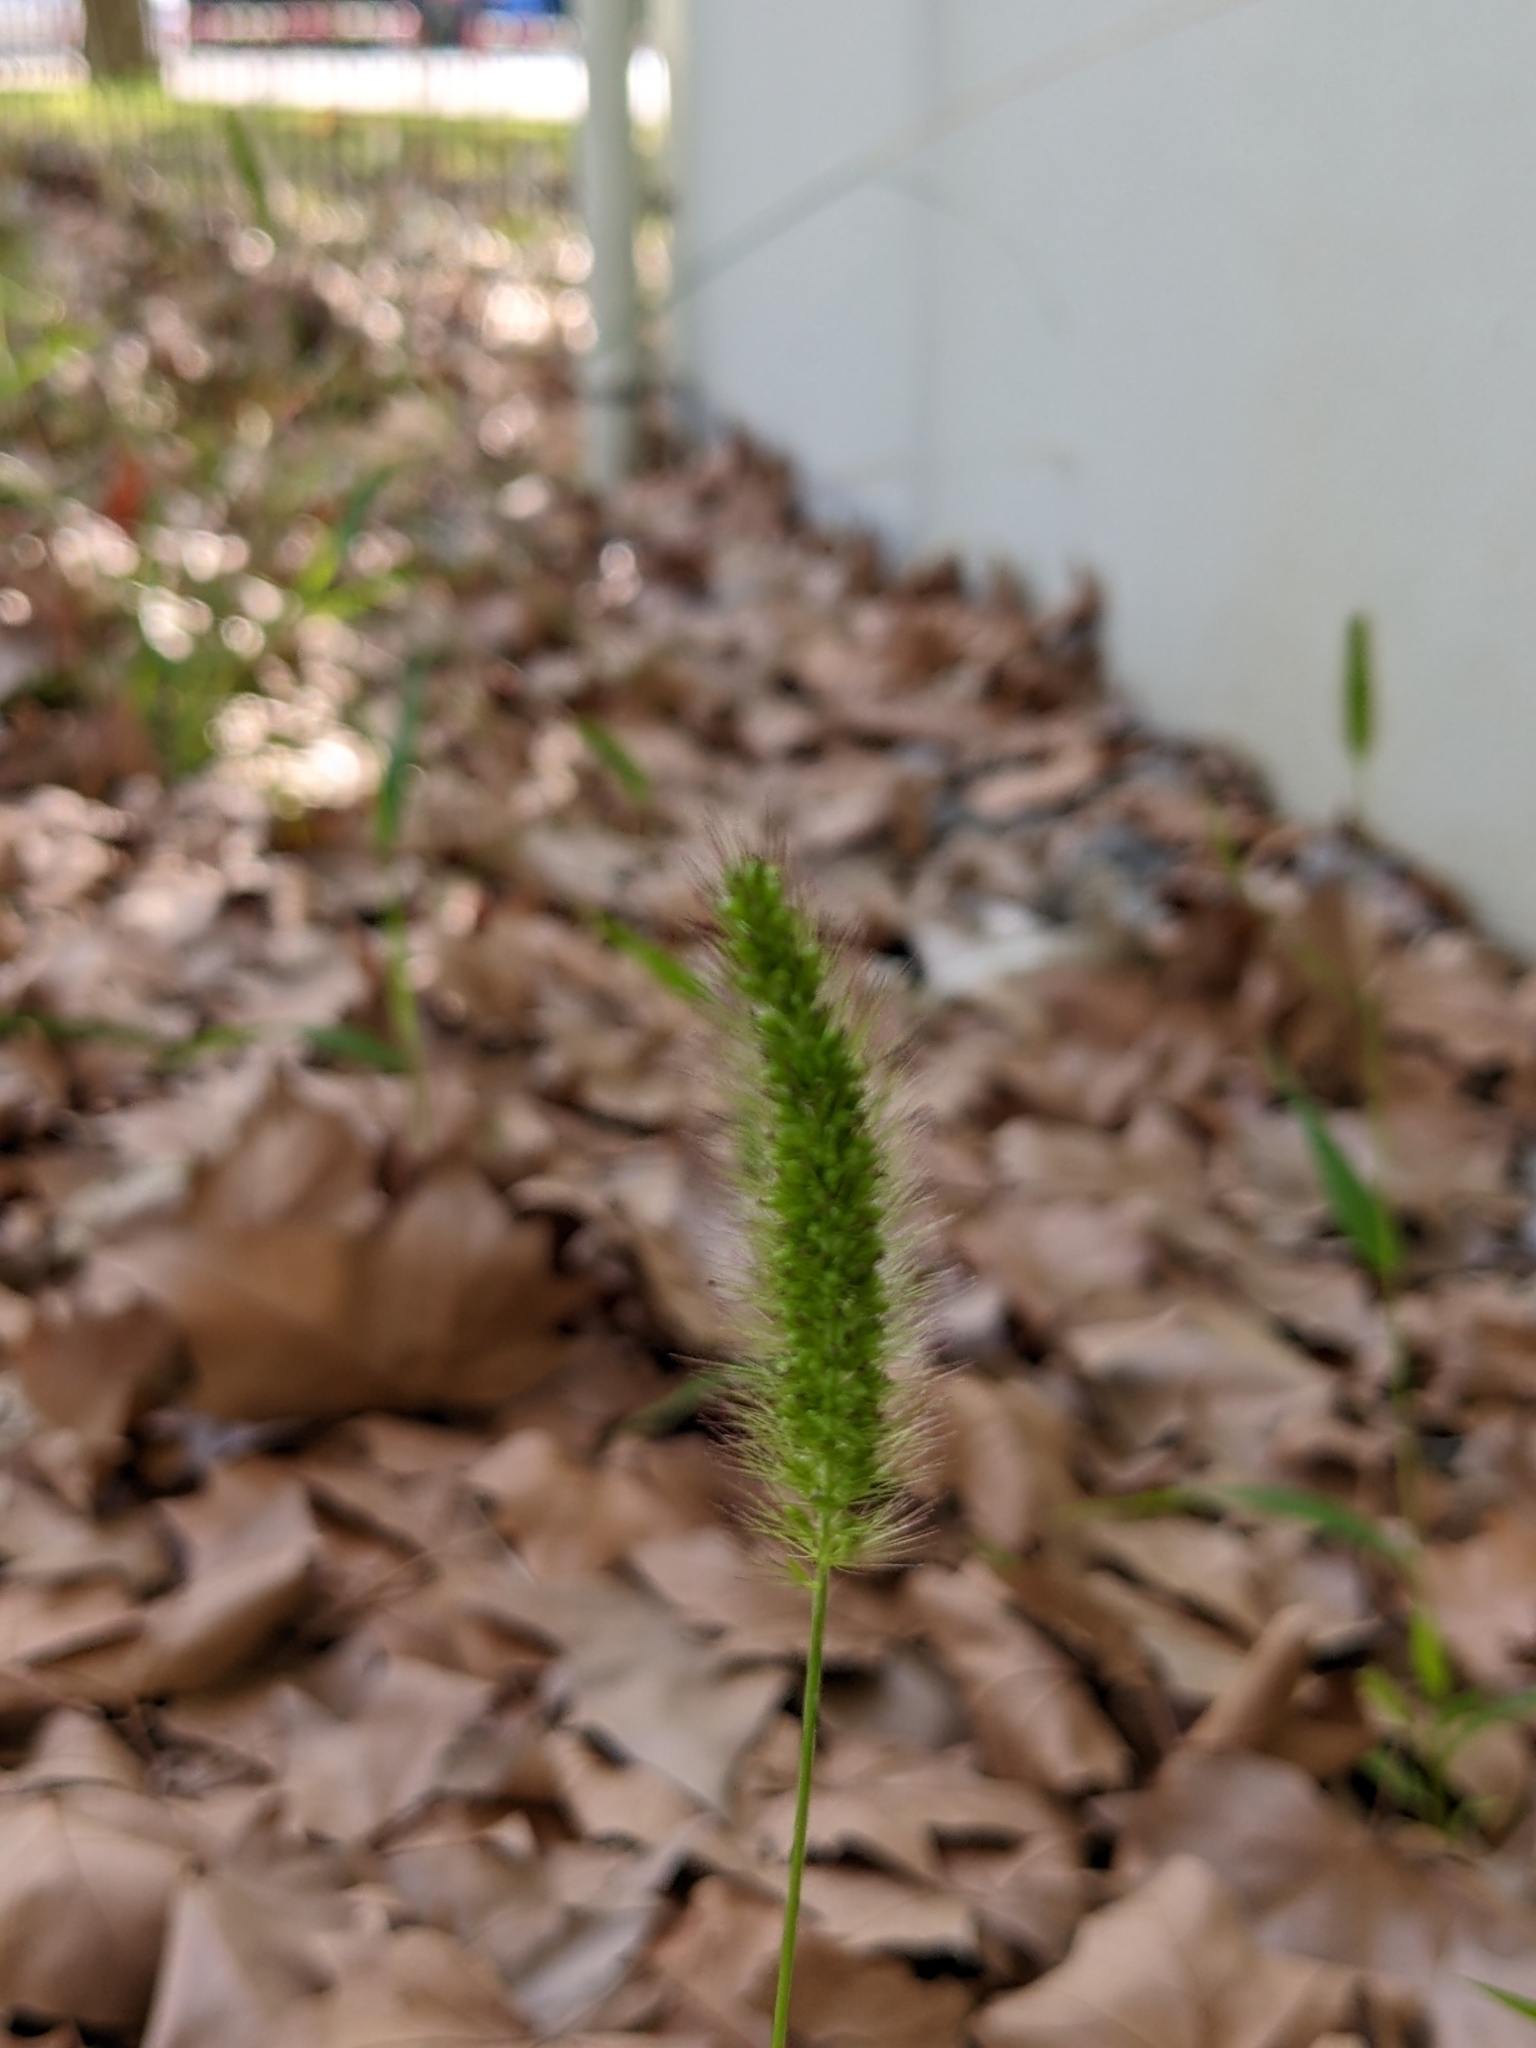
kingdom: Plantae
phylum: Tracheophyta
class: Liliopsida
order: Poales
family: Poaceae
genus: Setaria
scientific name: Setaria viridis
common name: Green bristlegrass
